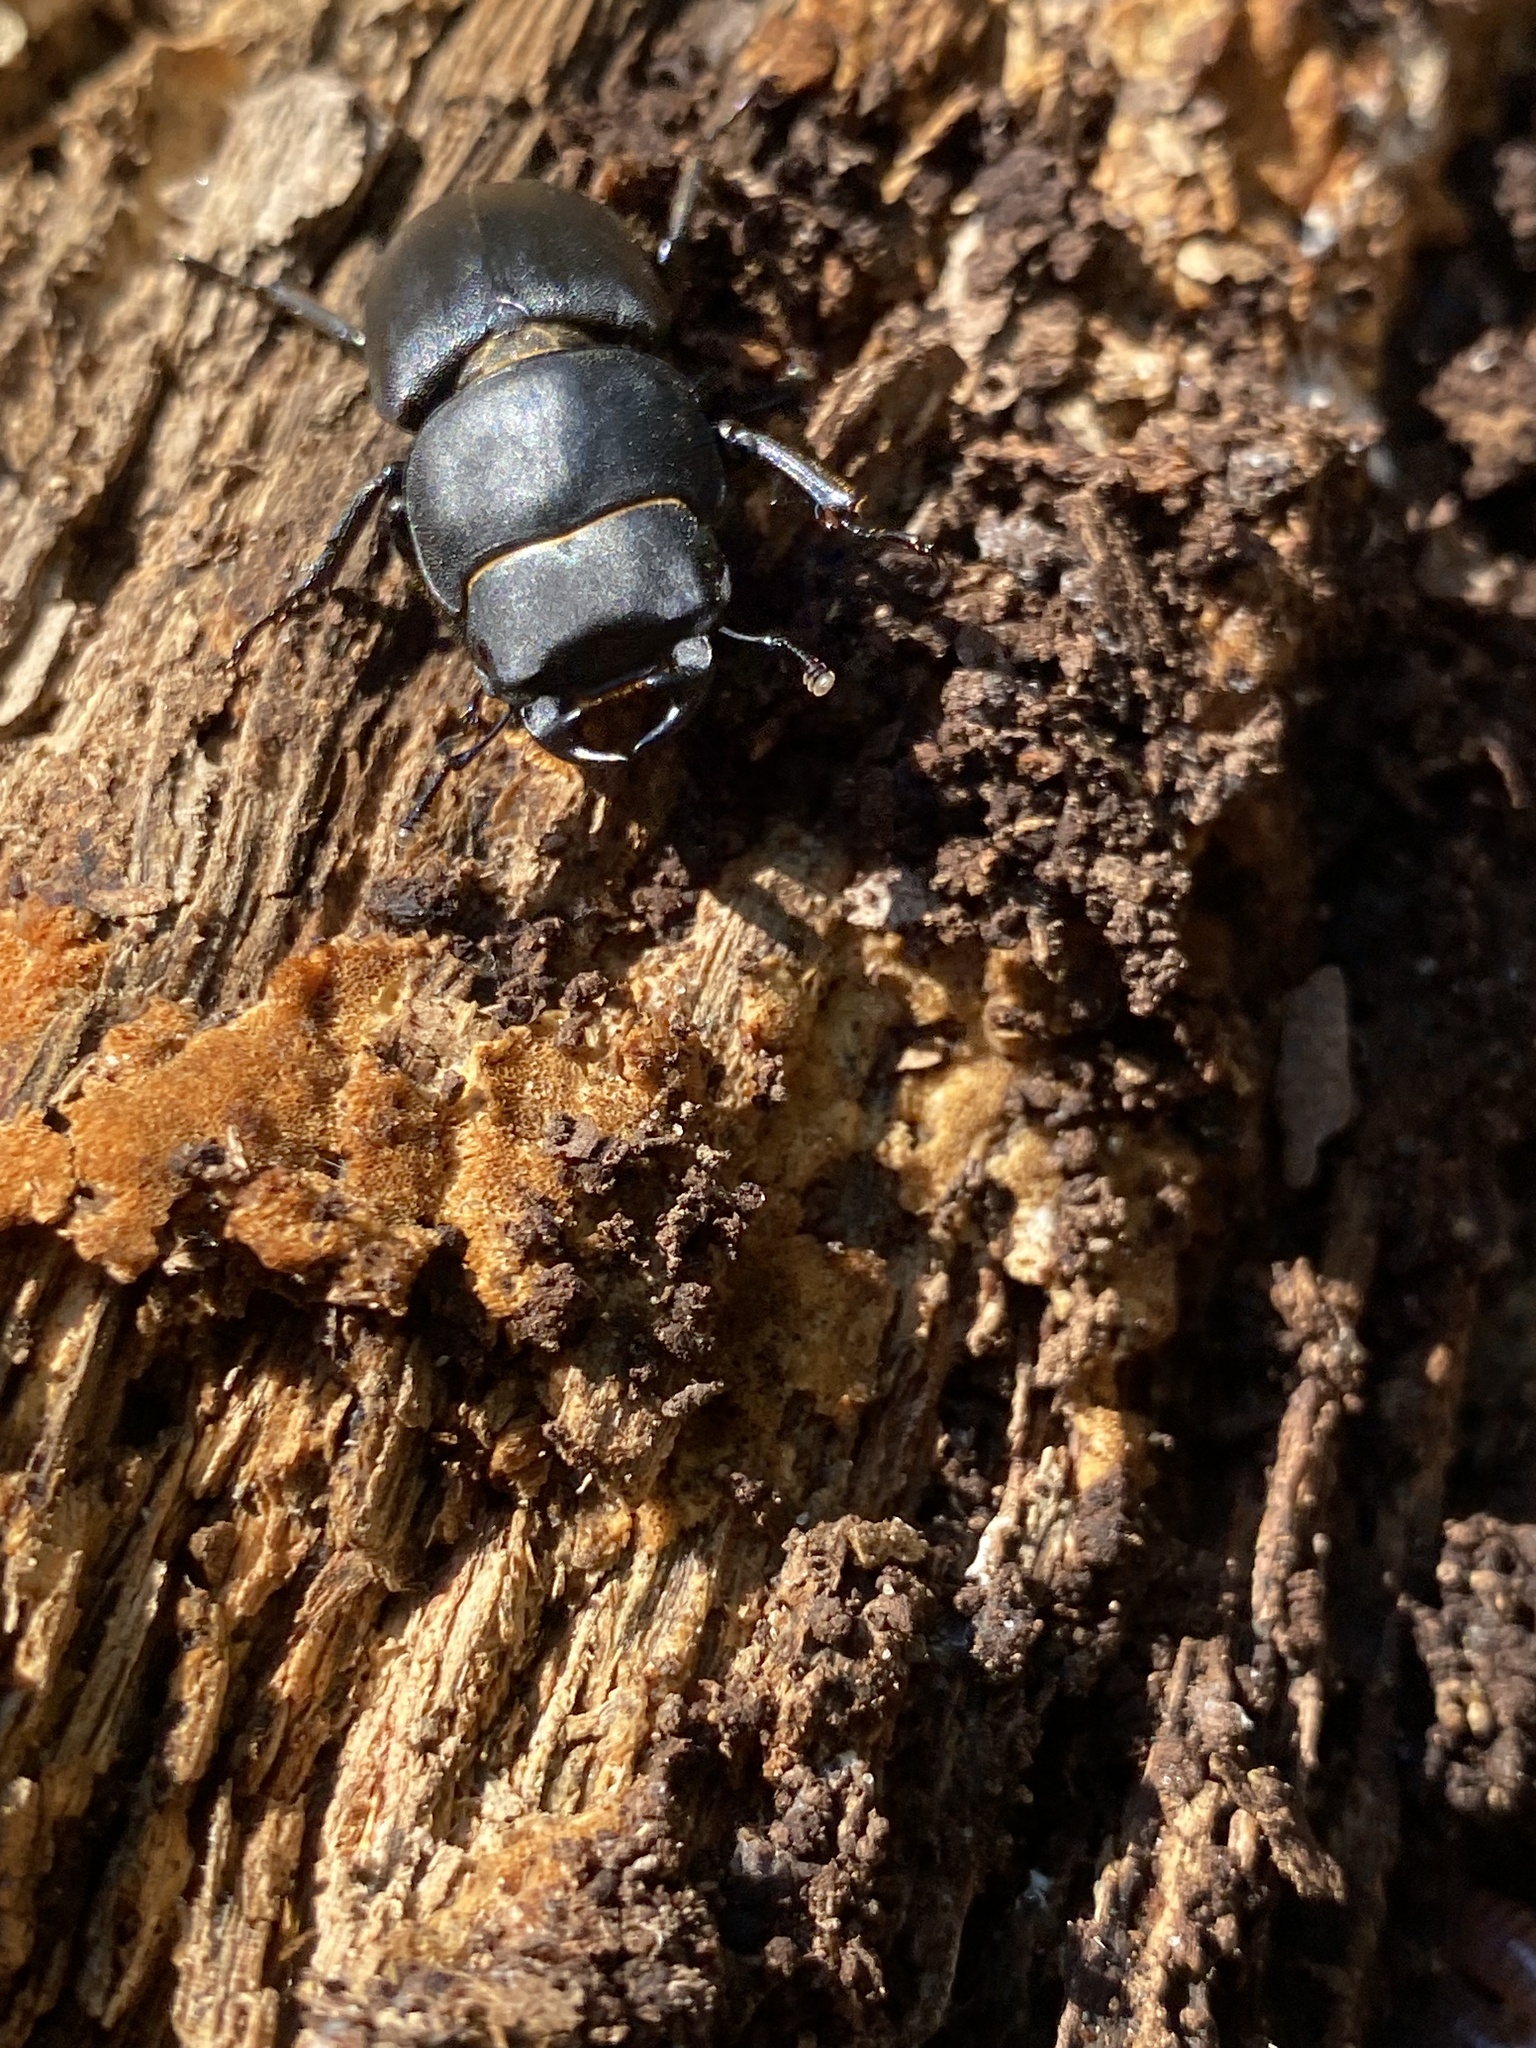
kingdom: Animalia
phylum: Arthropoda
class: Insecta
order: Coleoptera
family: Lucanidae
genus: Dorcus
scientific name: Dorcus parallelipipedus
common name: Lesser stag beetle
